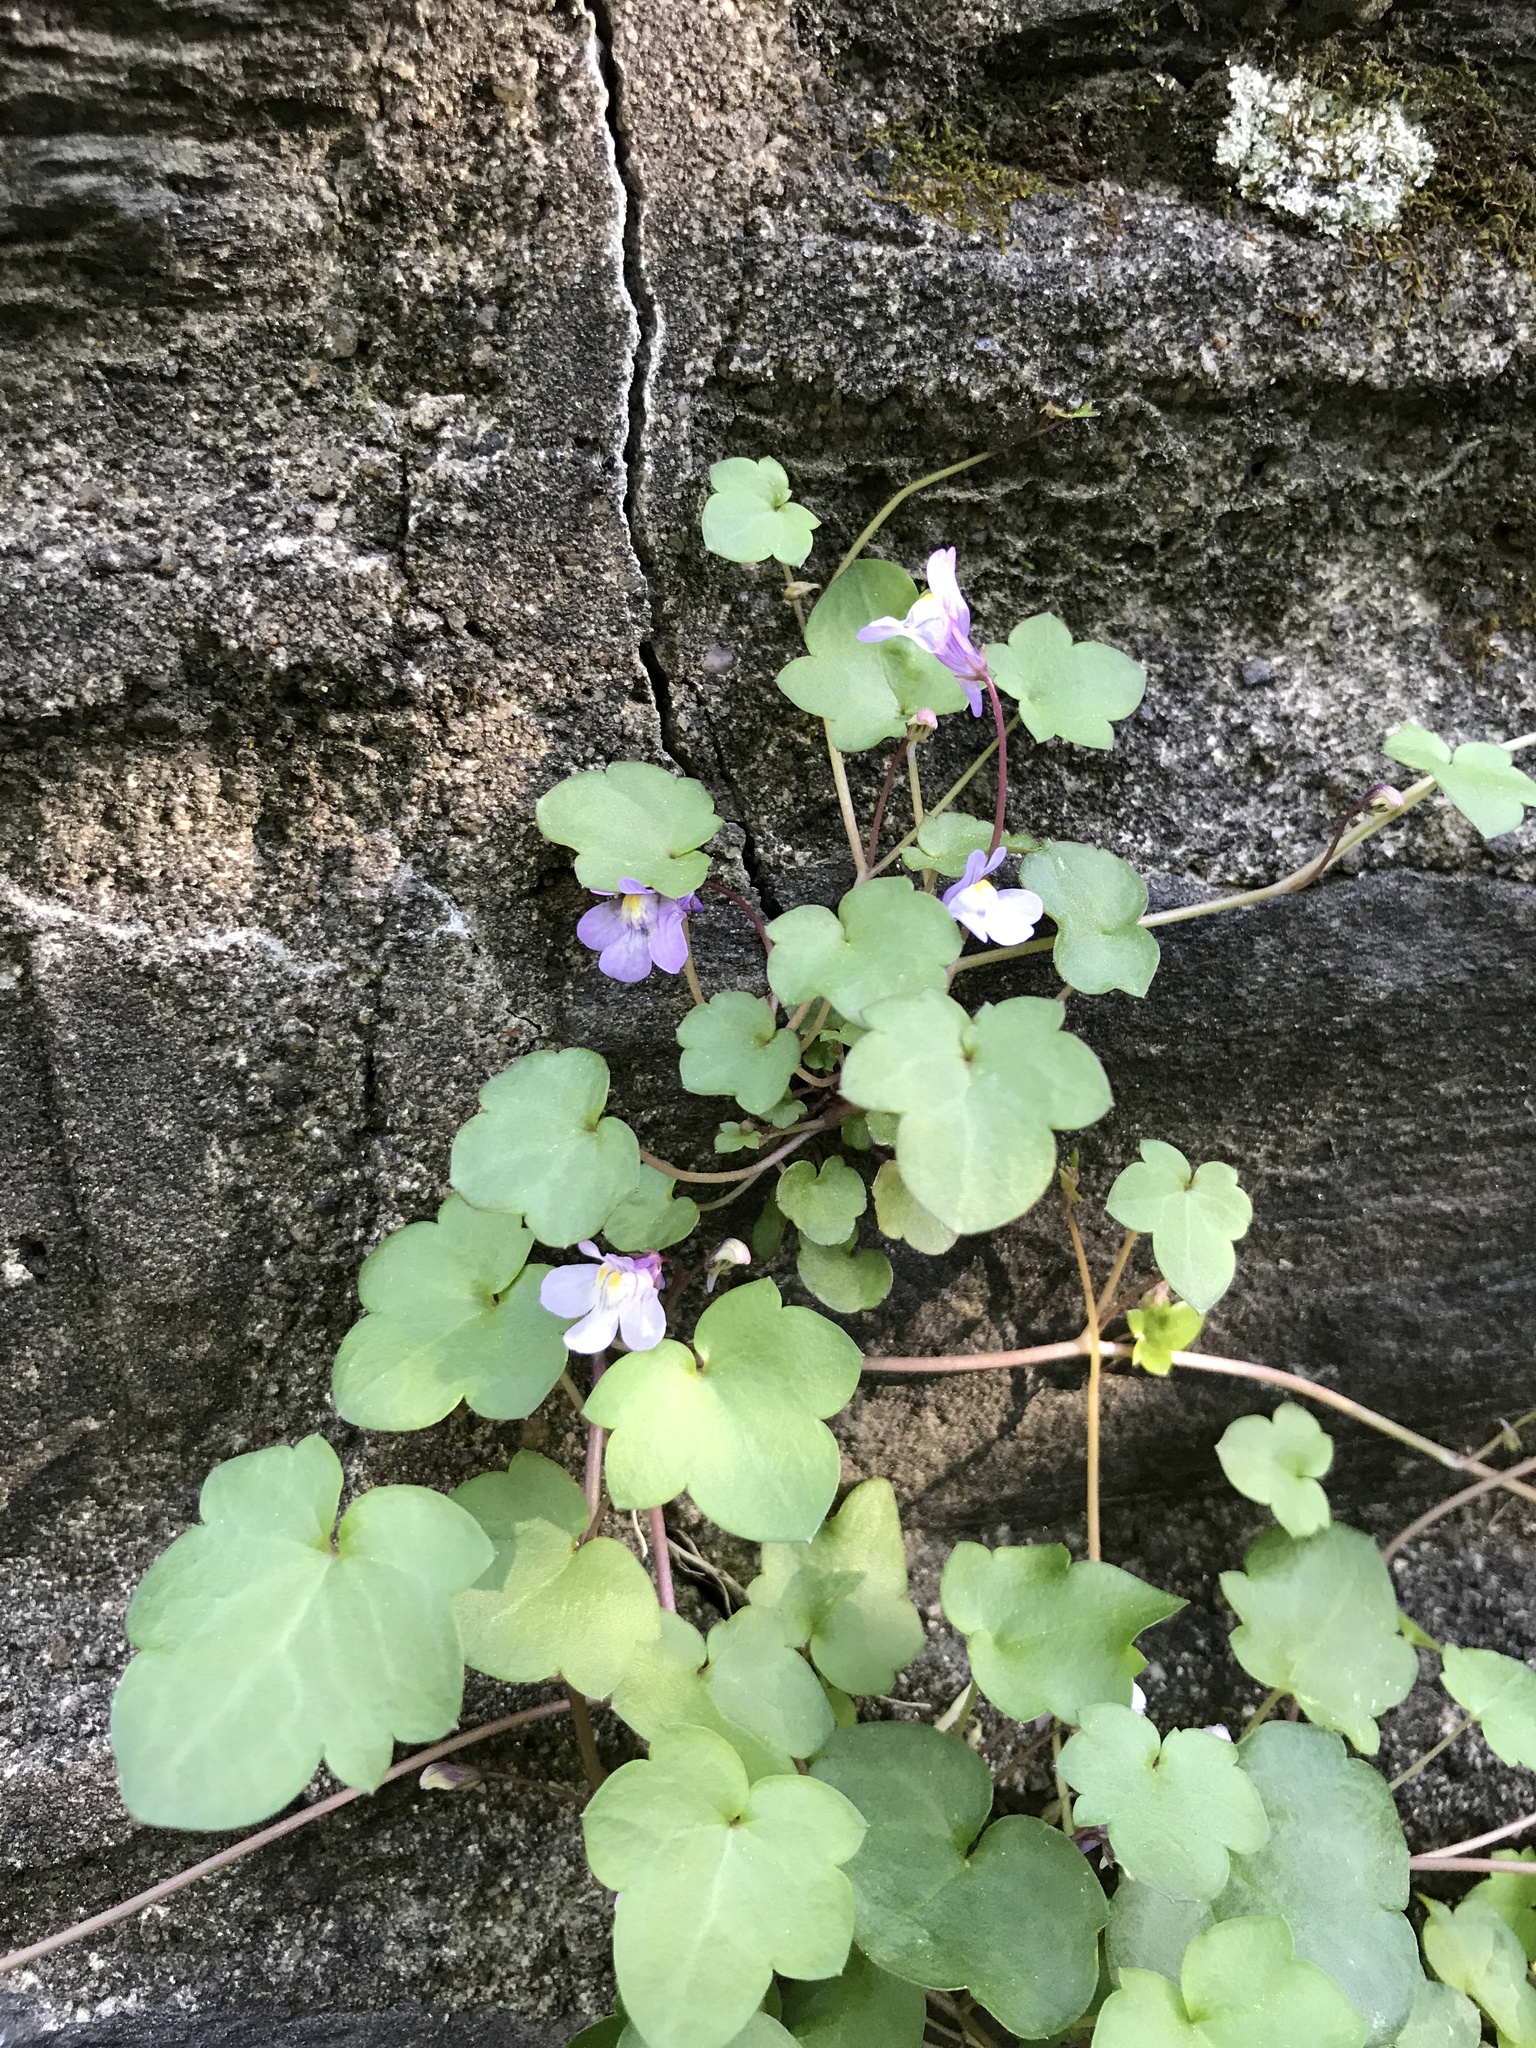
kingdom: Plantae
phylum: Tracheophyta
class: Magnoliopsida
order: Lamiales
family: Plantaginaceae
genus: Cymbalaria
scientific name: Cymbalaria muralis
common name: Ivy-leaved toadflax
